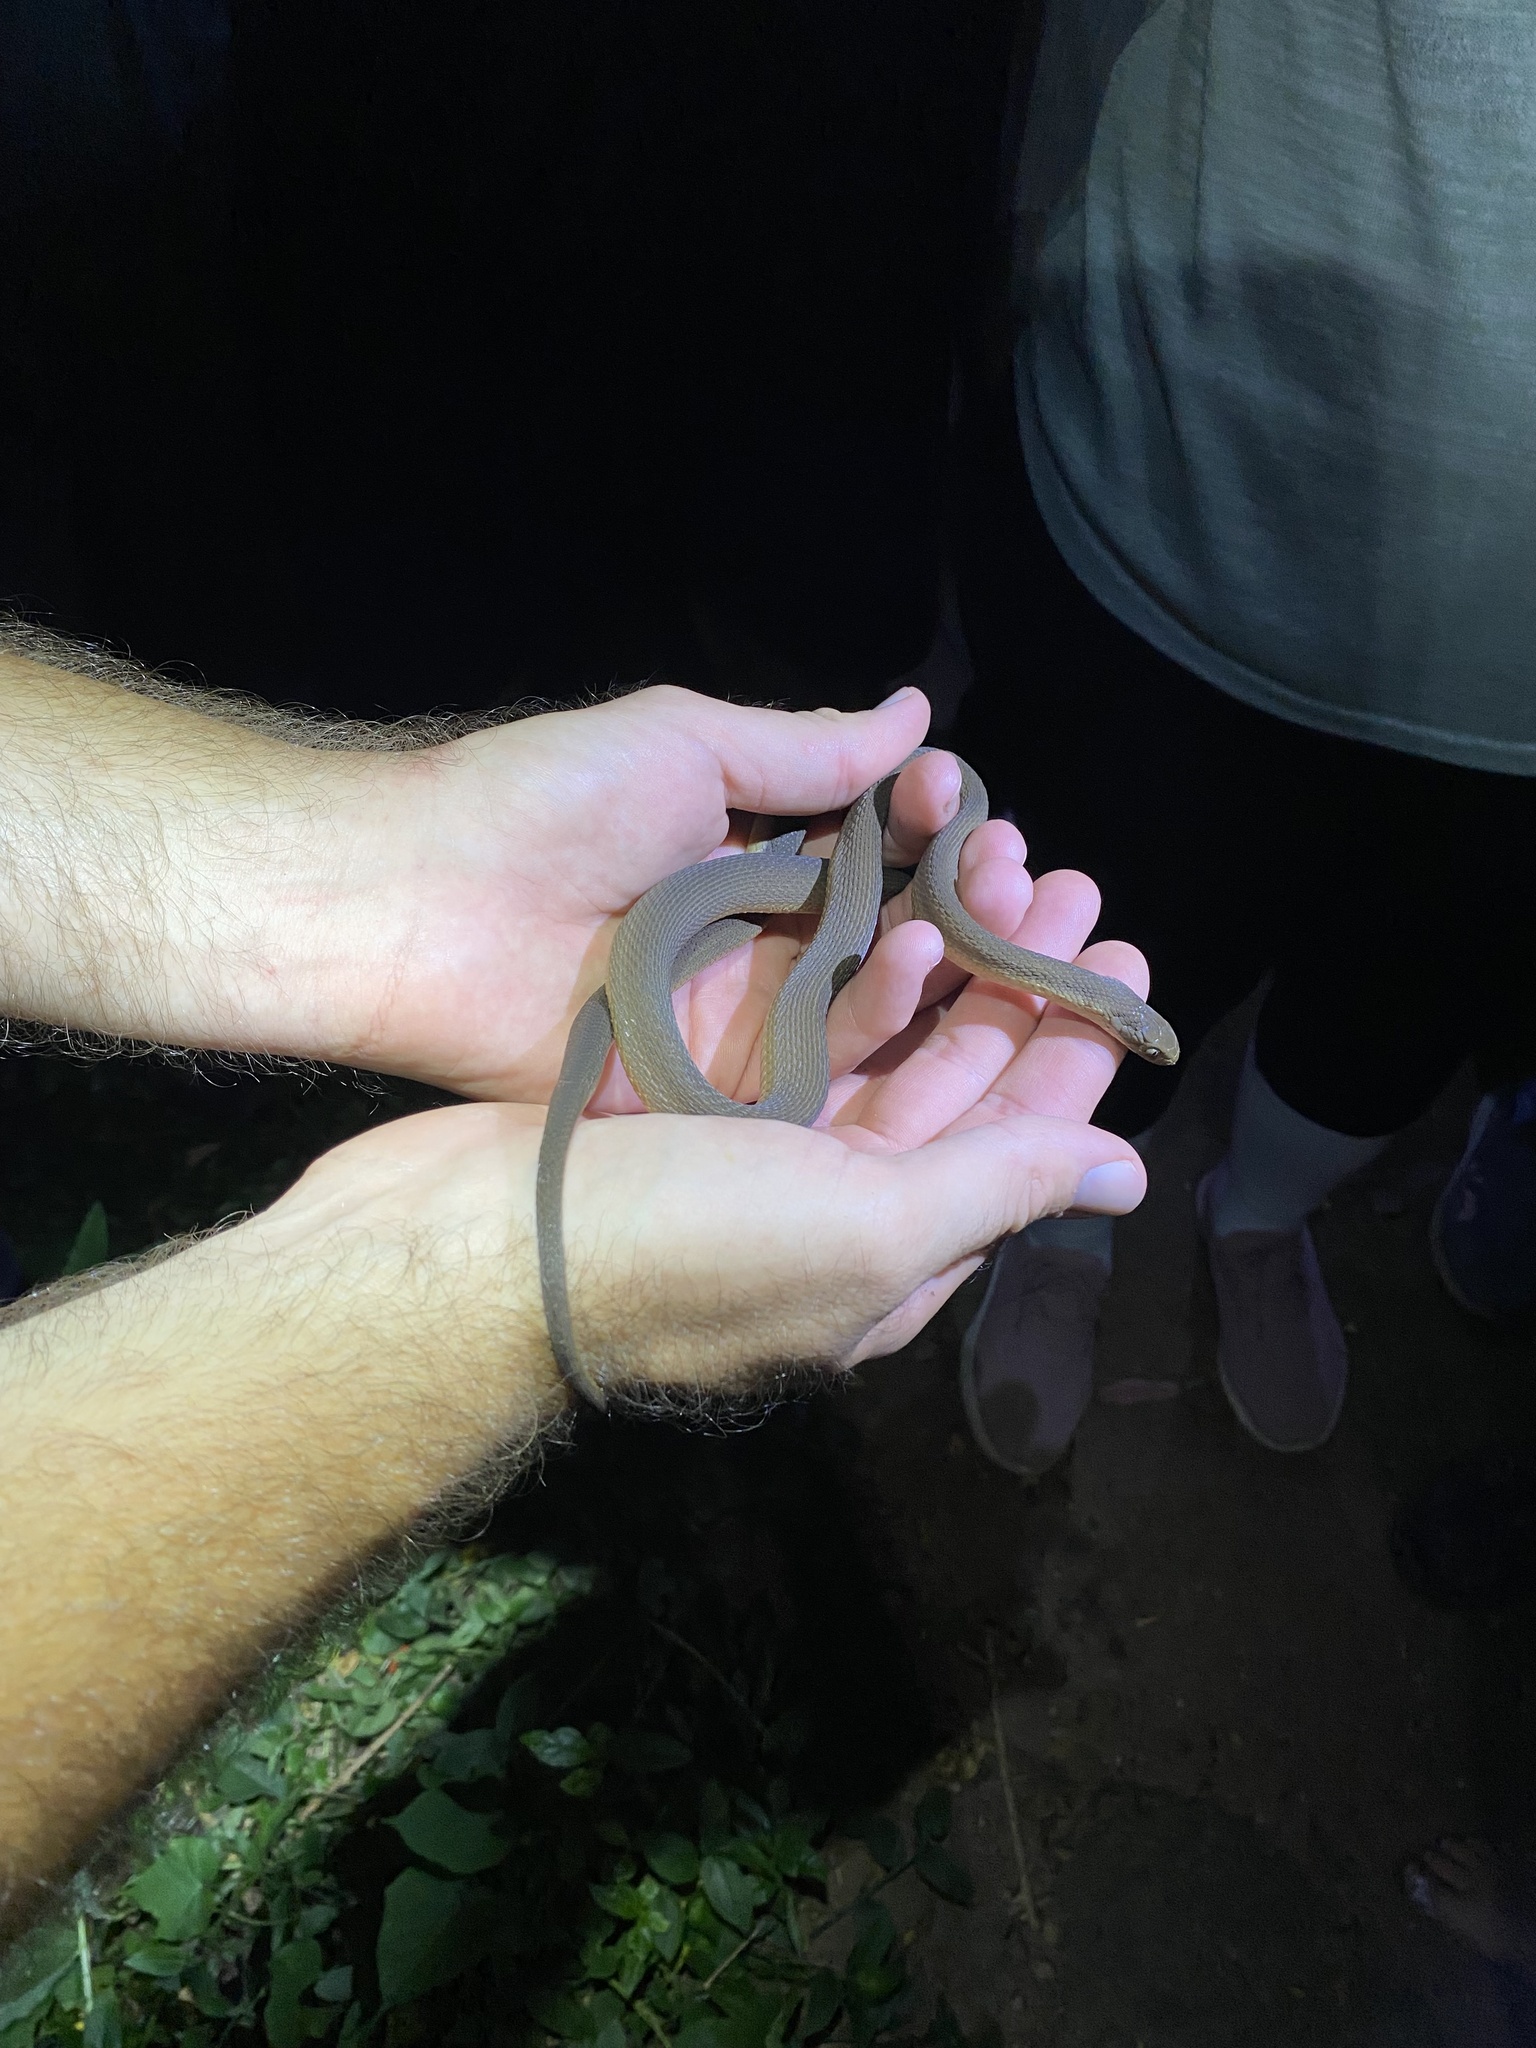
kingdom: Animalia
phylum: Chordata
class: Squamata
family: Colubridae
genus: Dasypeltis
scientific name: Dasypeltis inornata
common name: Southern brown egg eater
